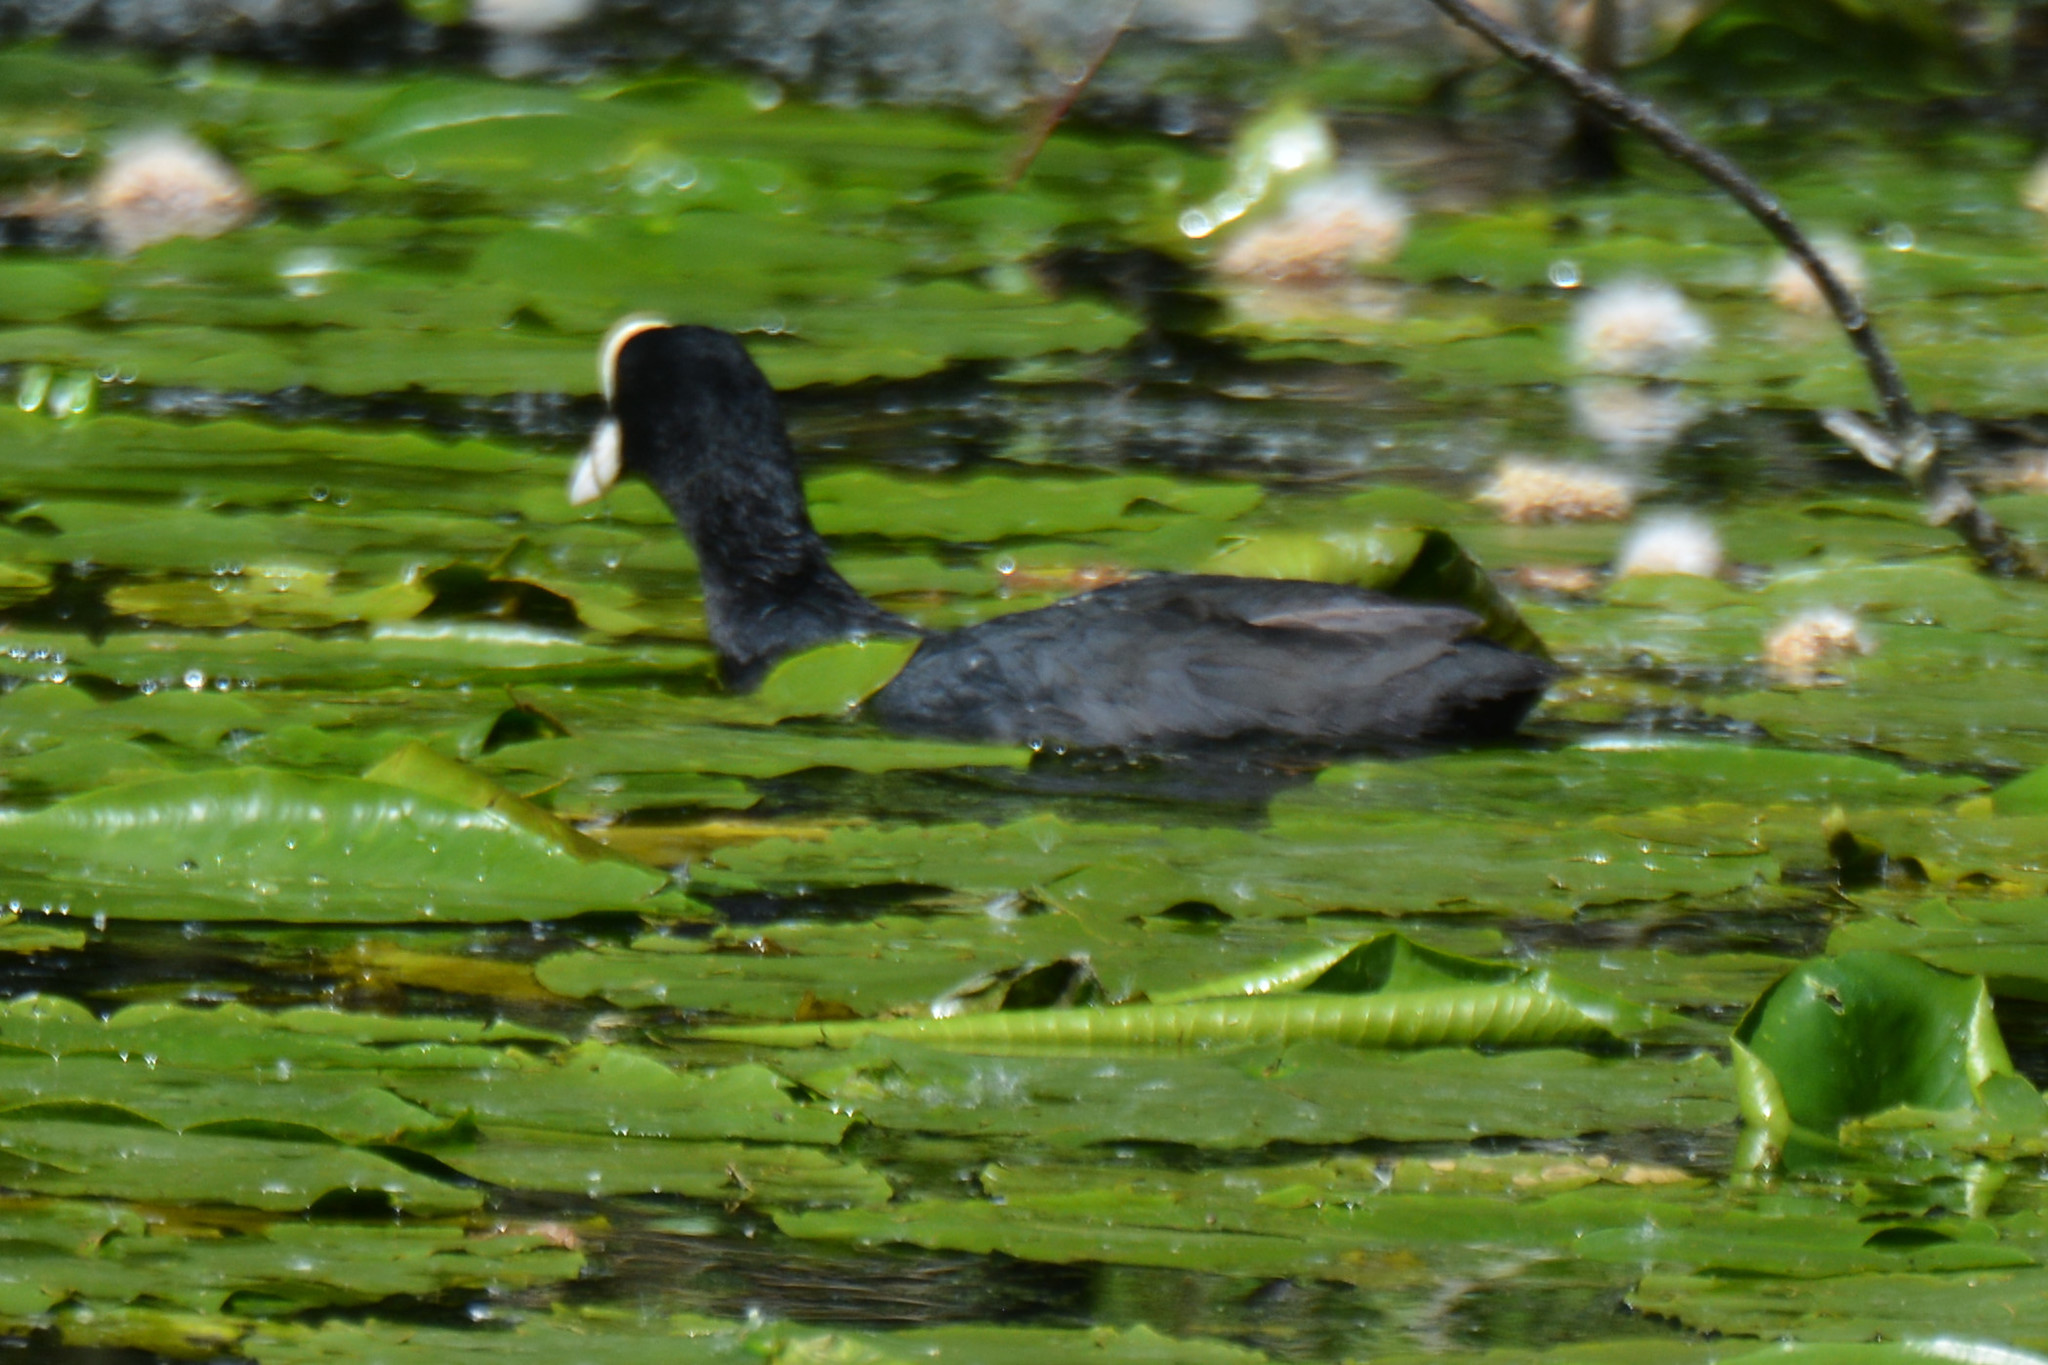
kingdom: Animalia
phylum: Chordata
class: Aves
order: Gruiformes
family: Rallidae
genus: Fulica
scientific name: Fulica atra
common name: Eurasian coot
